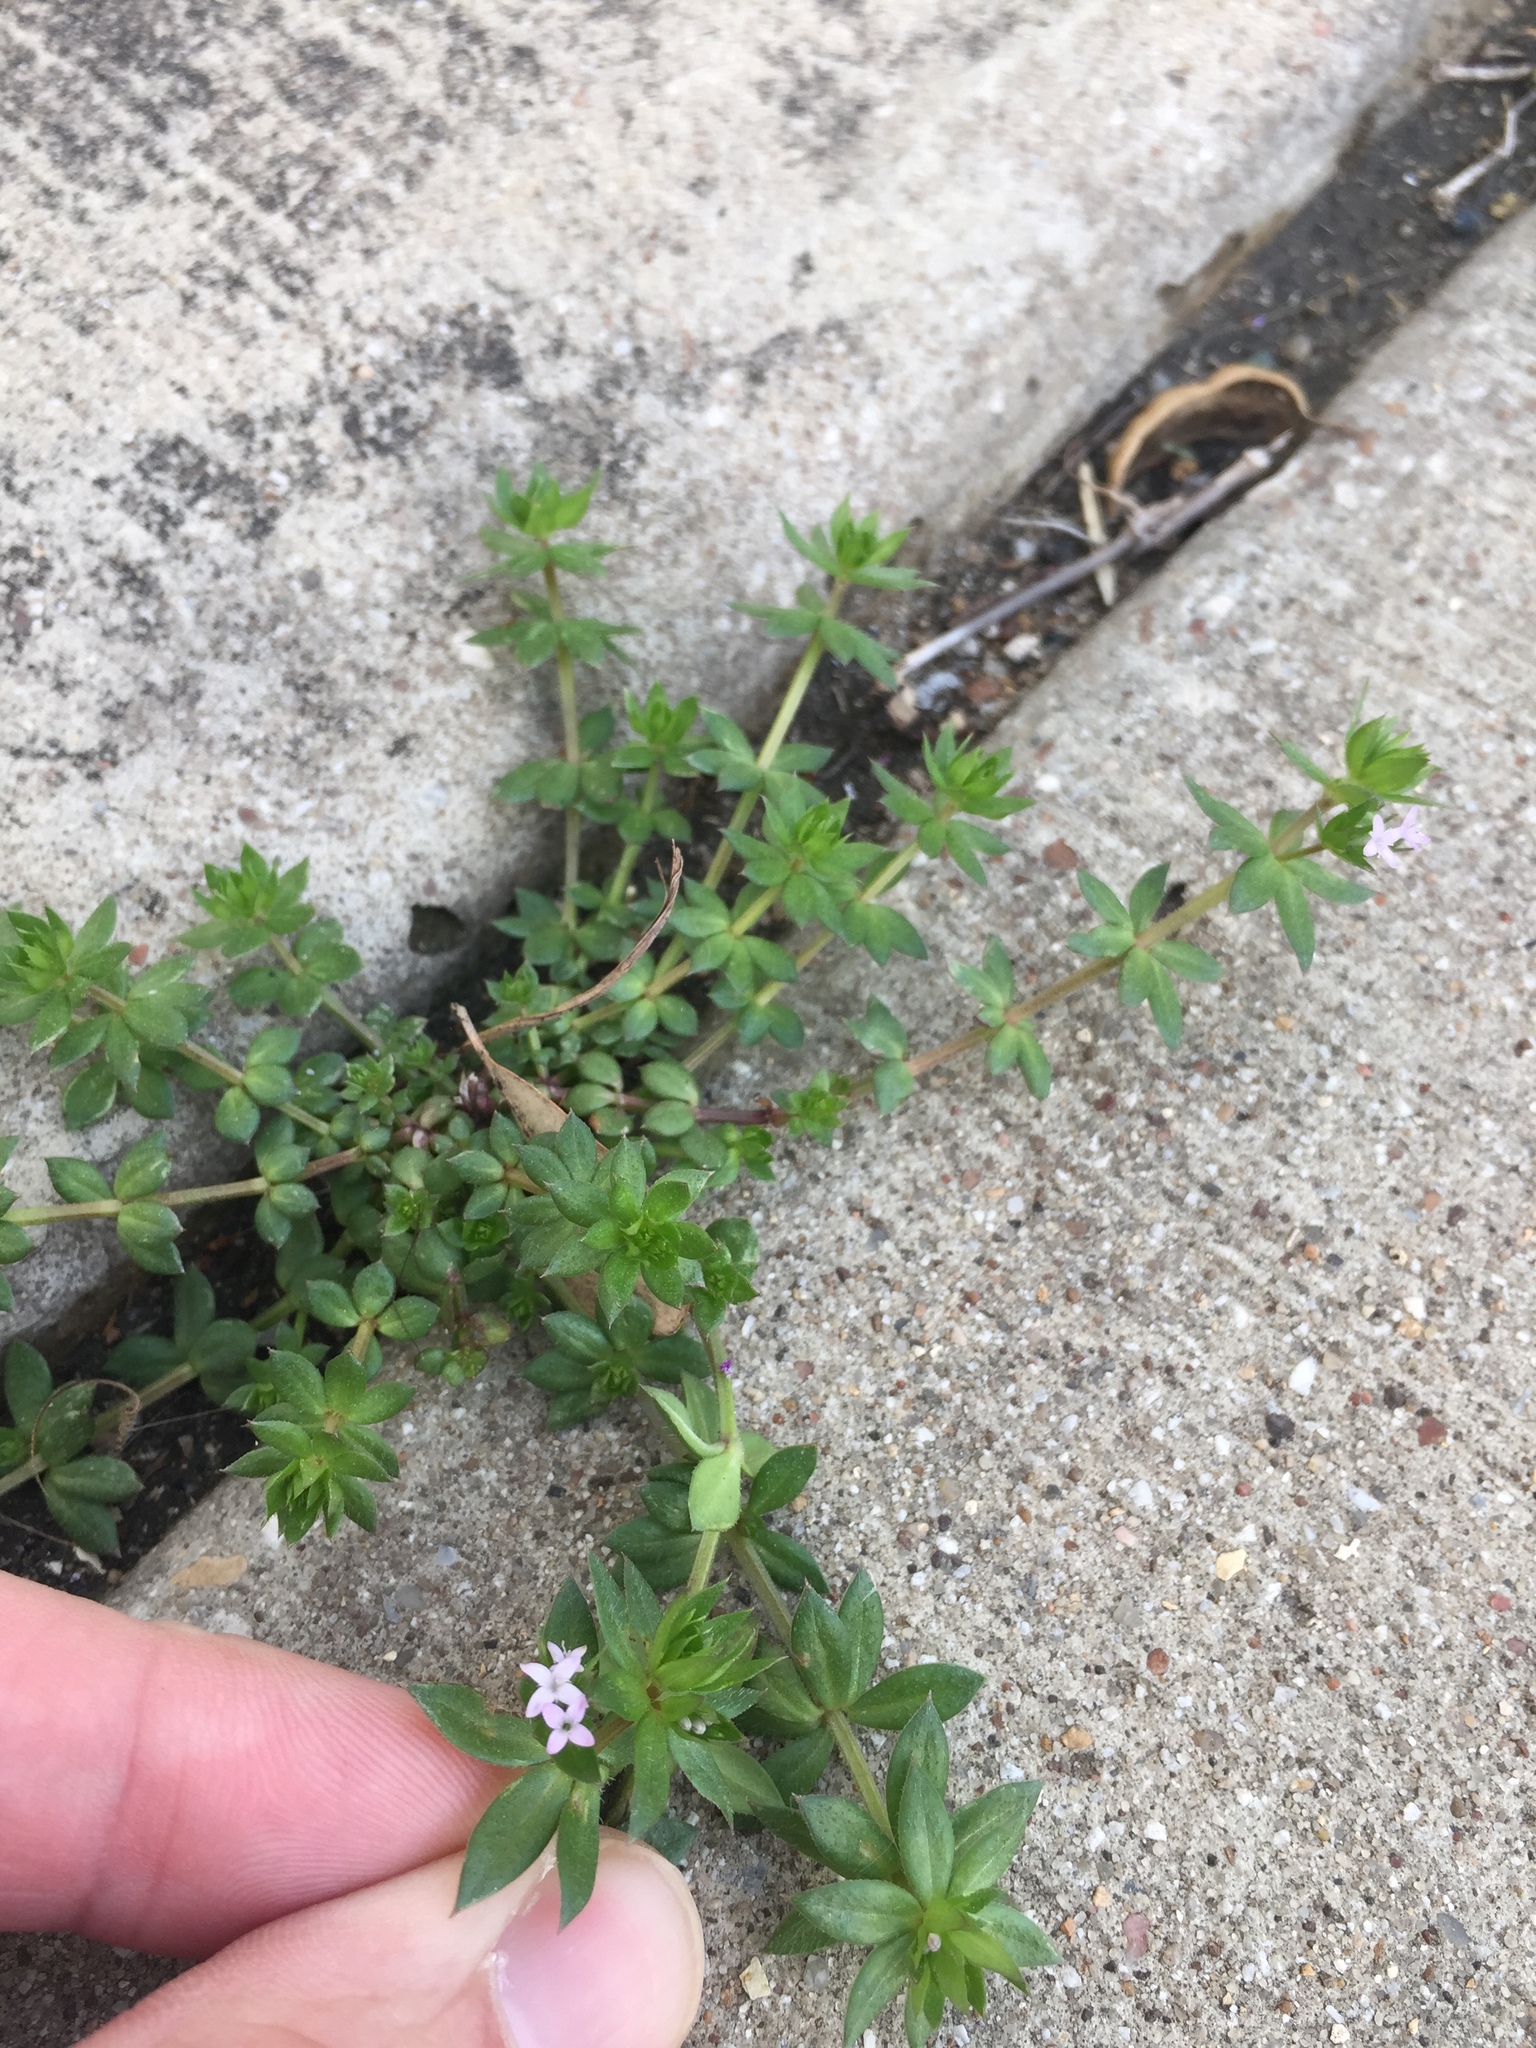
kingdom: Plantae
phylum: Tracheophyta
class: Magnoliopsida
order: Gentianales
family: Rubiaceae
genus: Sherardia
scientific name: Sherardia arvensis
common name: Field madder
